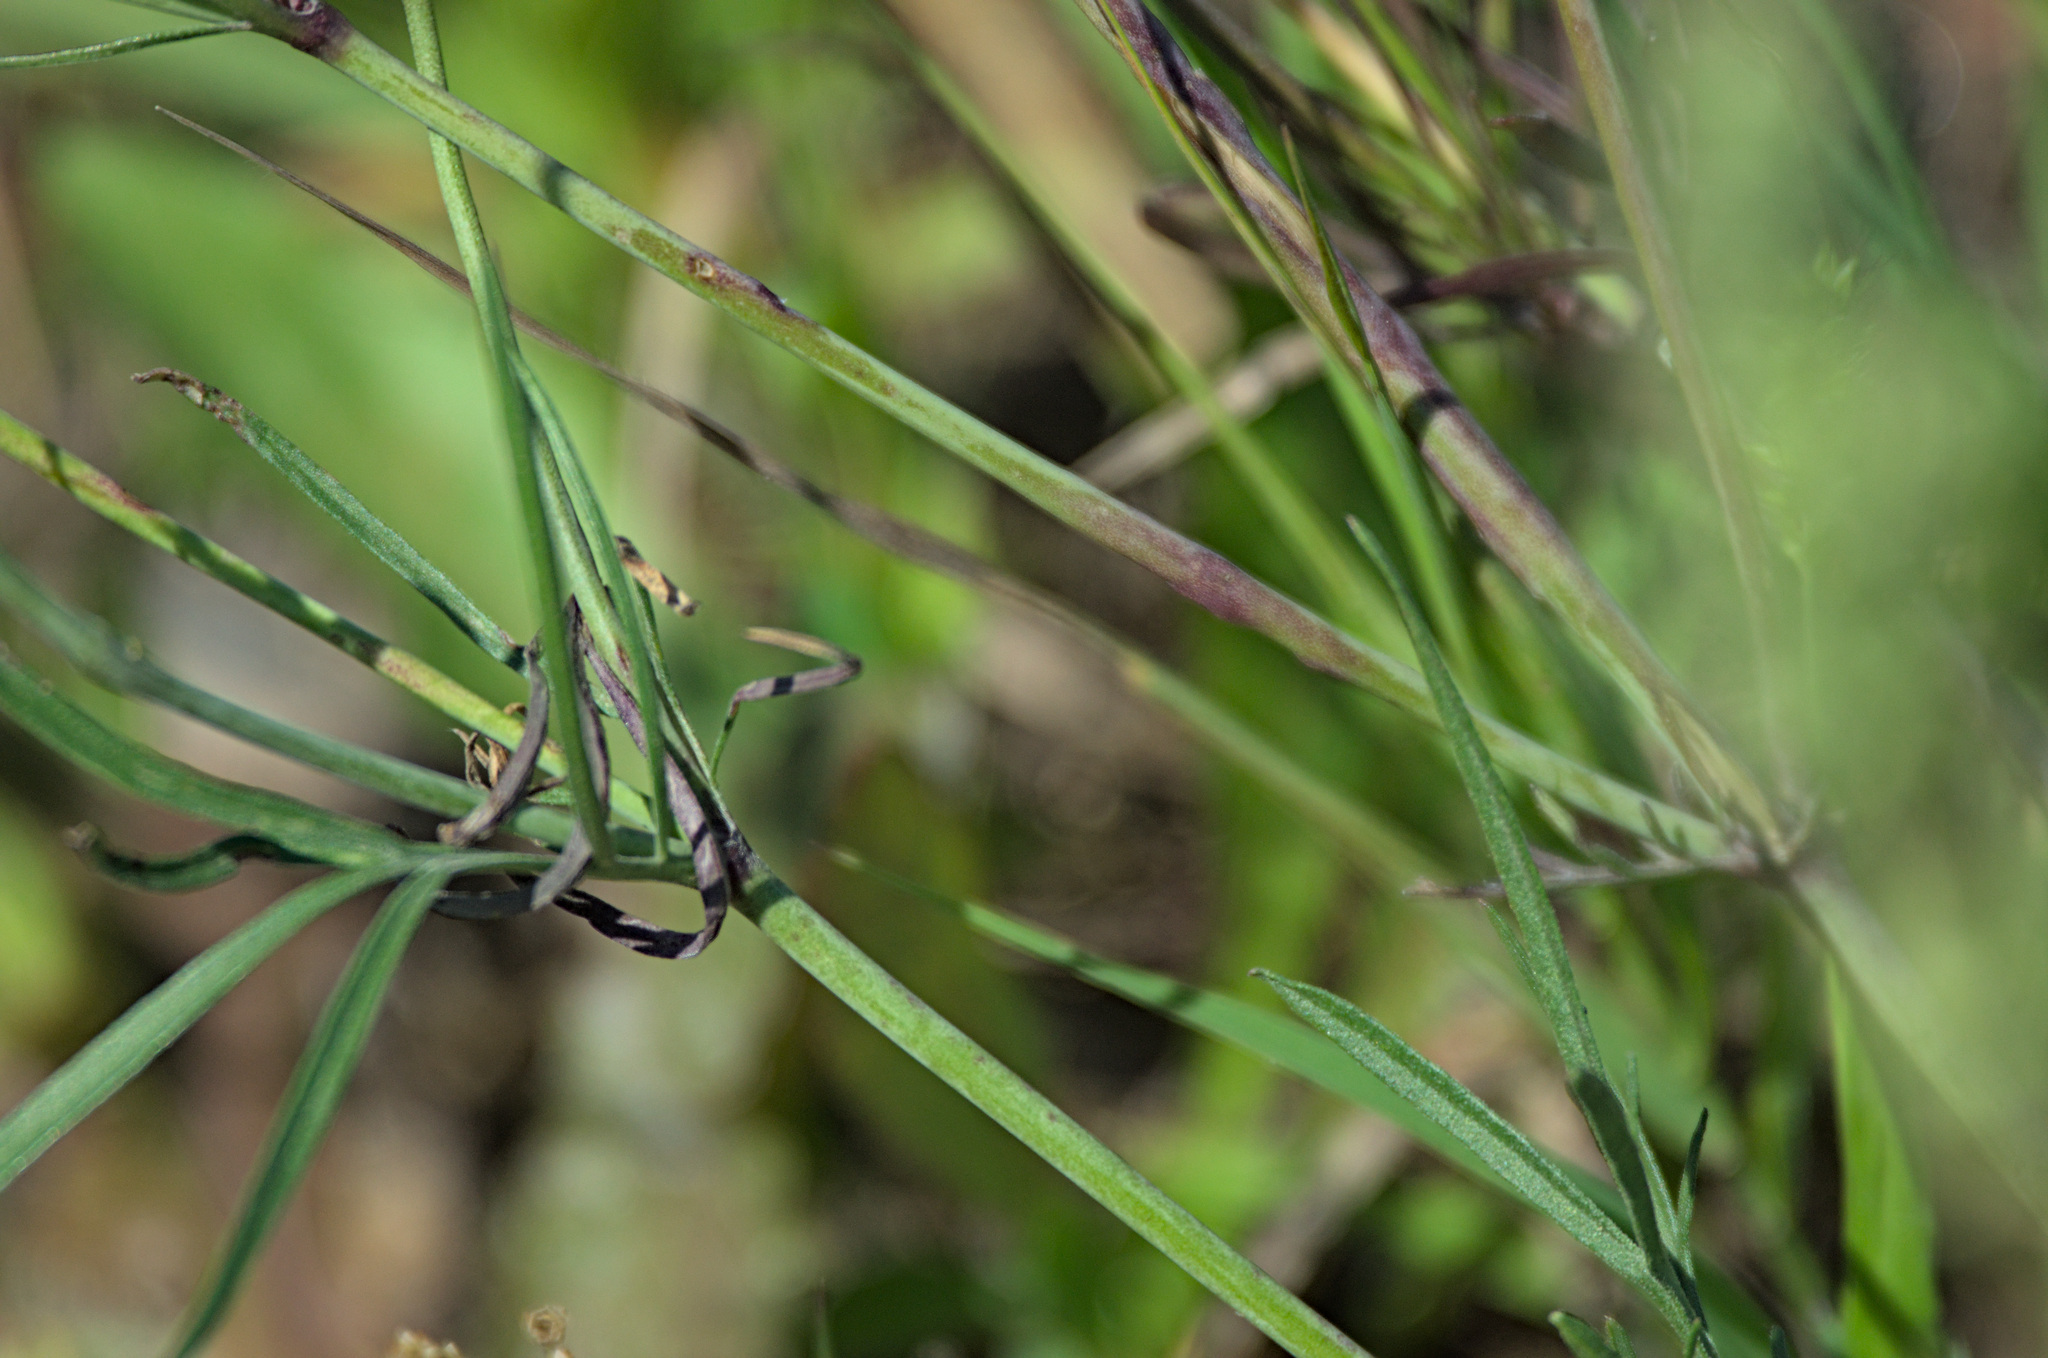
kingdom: Plantae
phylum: Tracheophyta
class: Magnoliopsida
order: Dipsacales
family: Caprifoliaceae
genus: Scabiosa
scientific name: Scabiosa ochroleuca
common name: Cream pincushions
